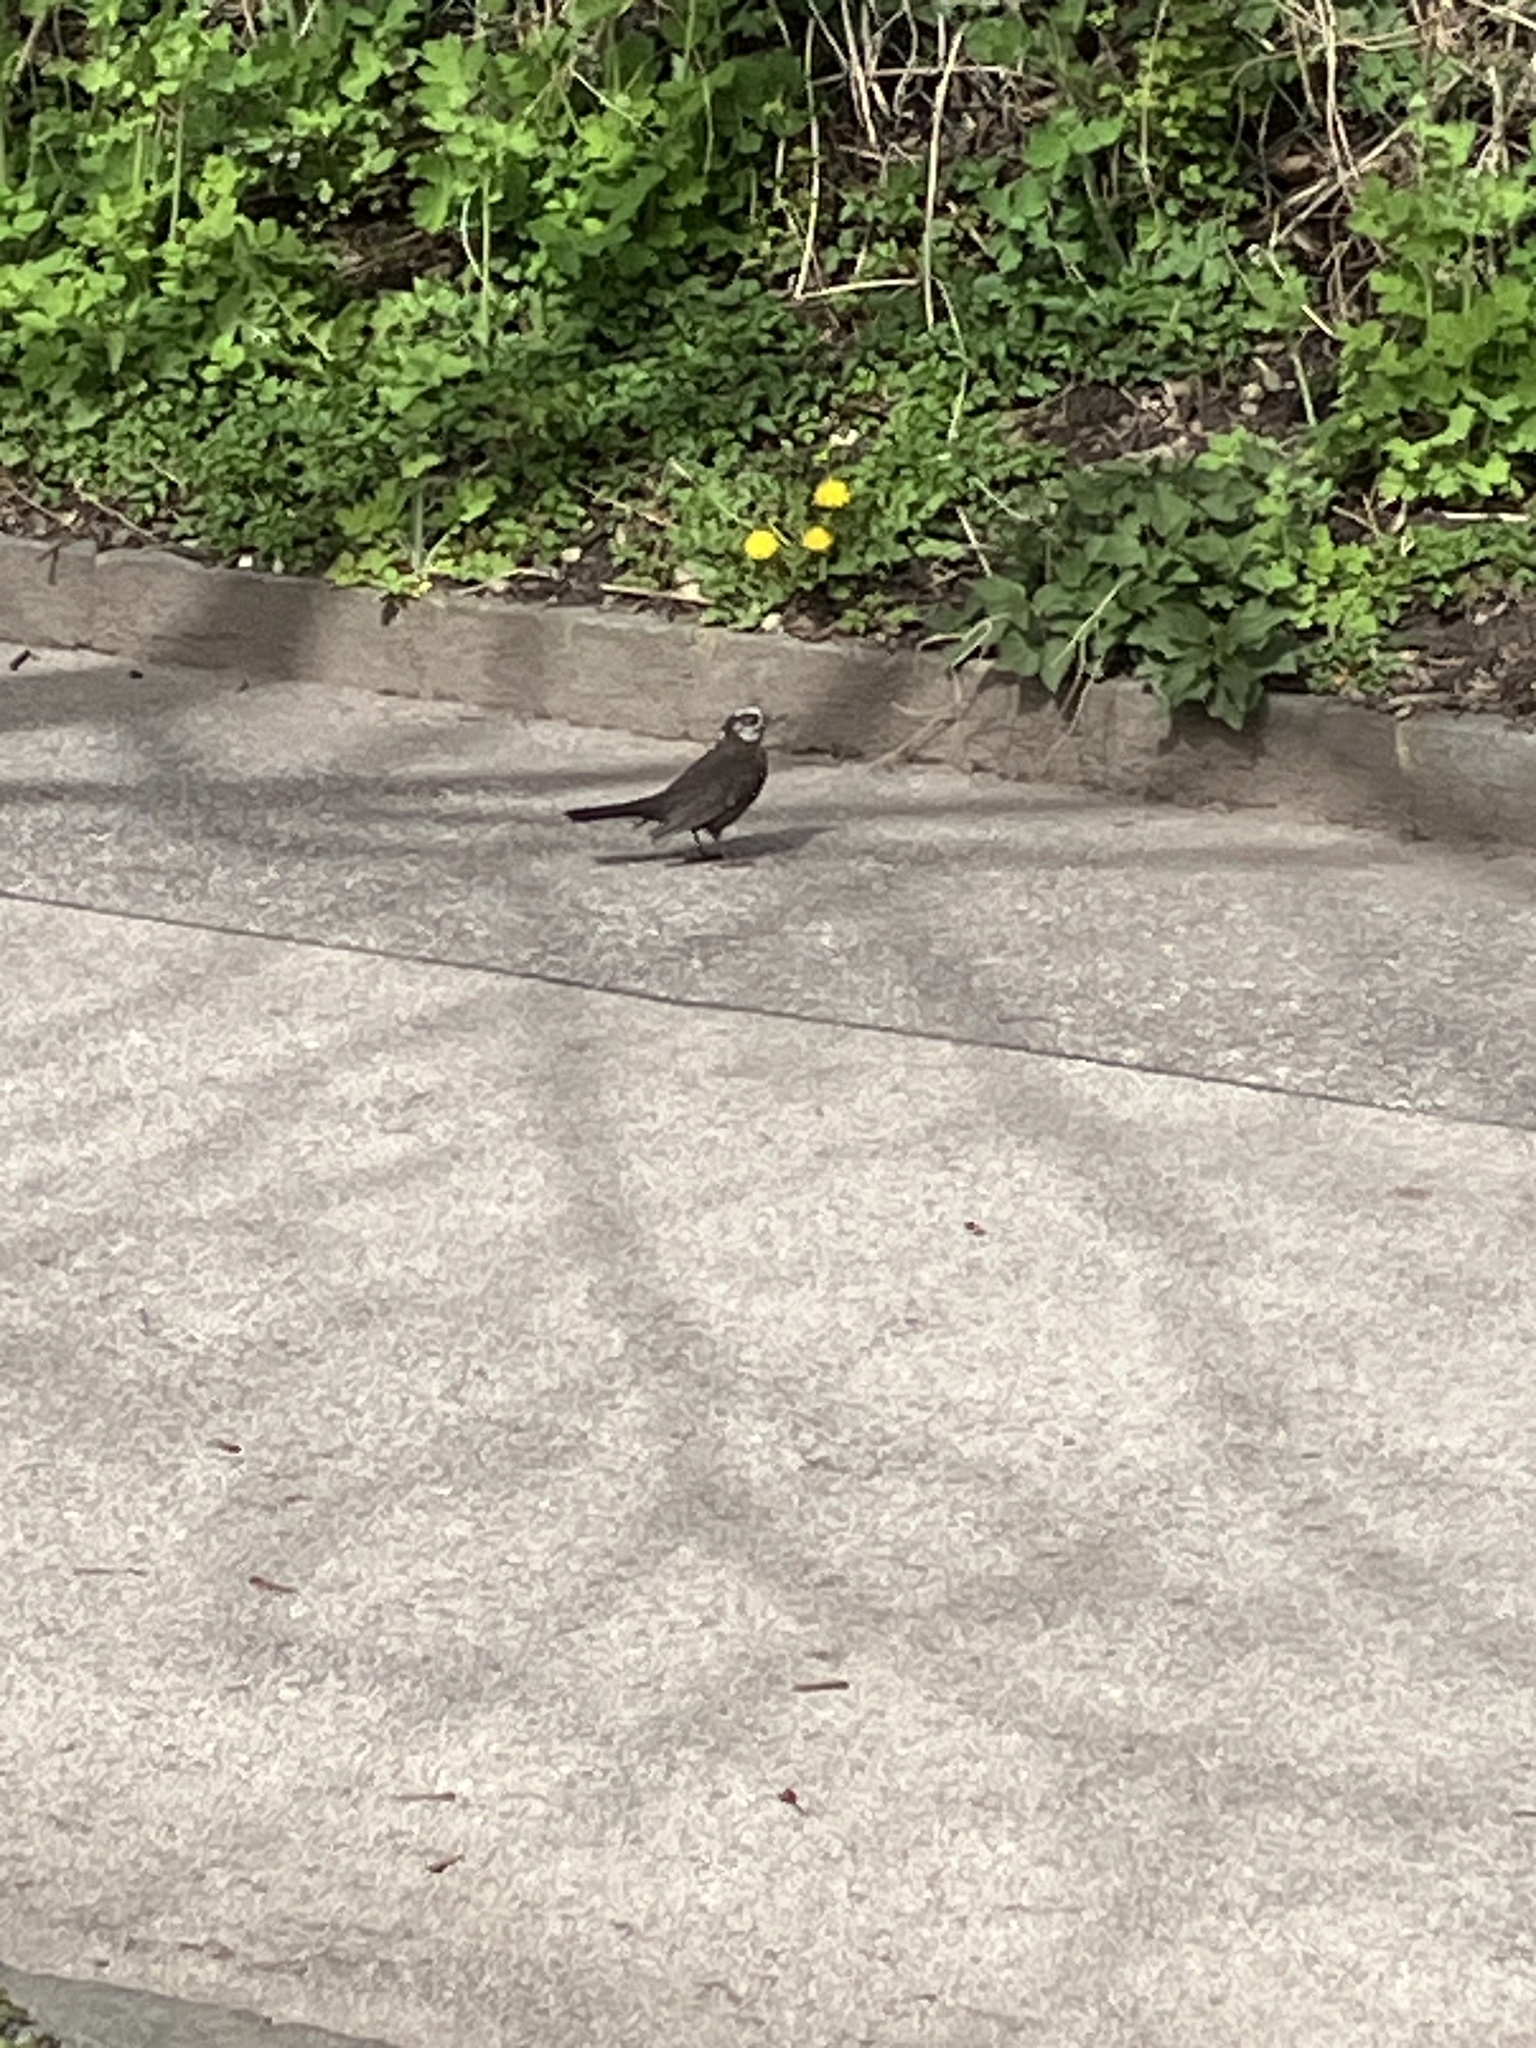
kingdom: Animalia
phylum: Chordata
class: Aves
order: Passeriformes
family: Turdidae
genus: Turdus
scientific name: Turdus merula
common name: Common blackbird
